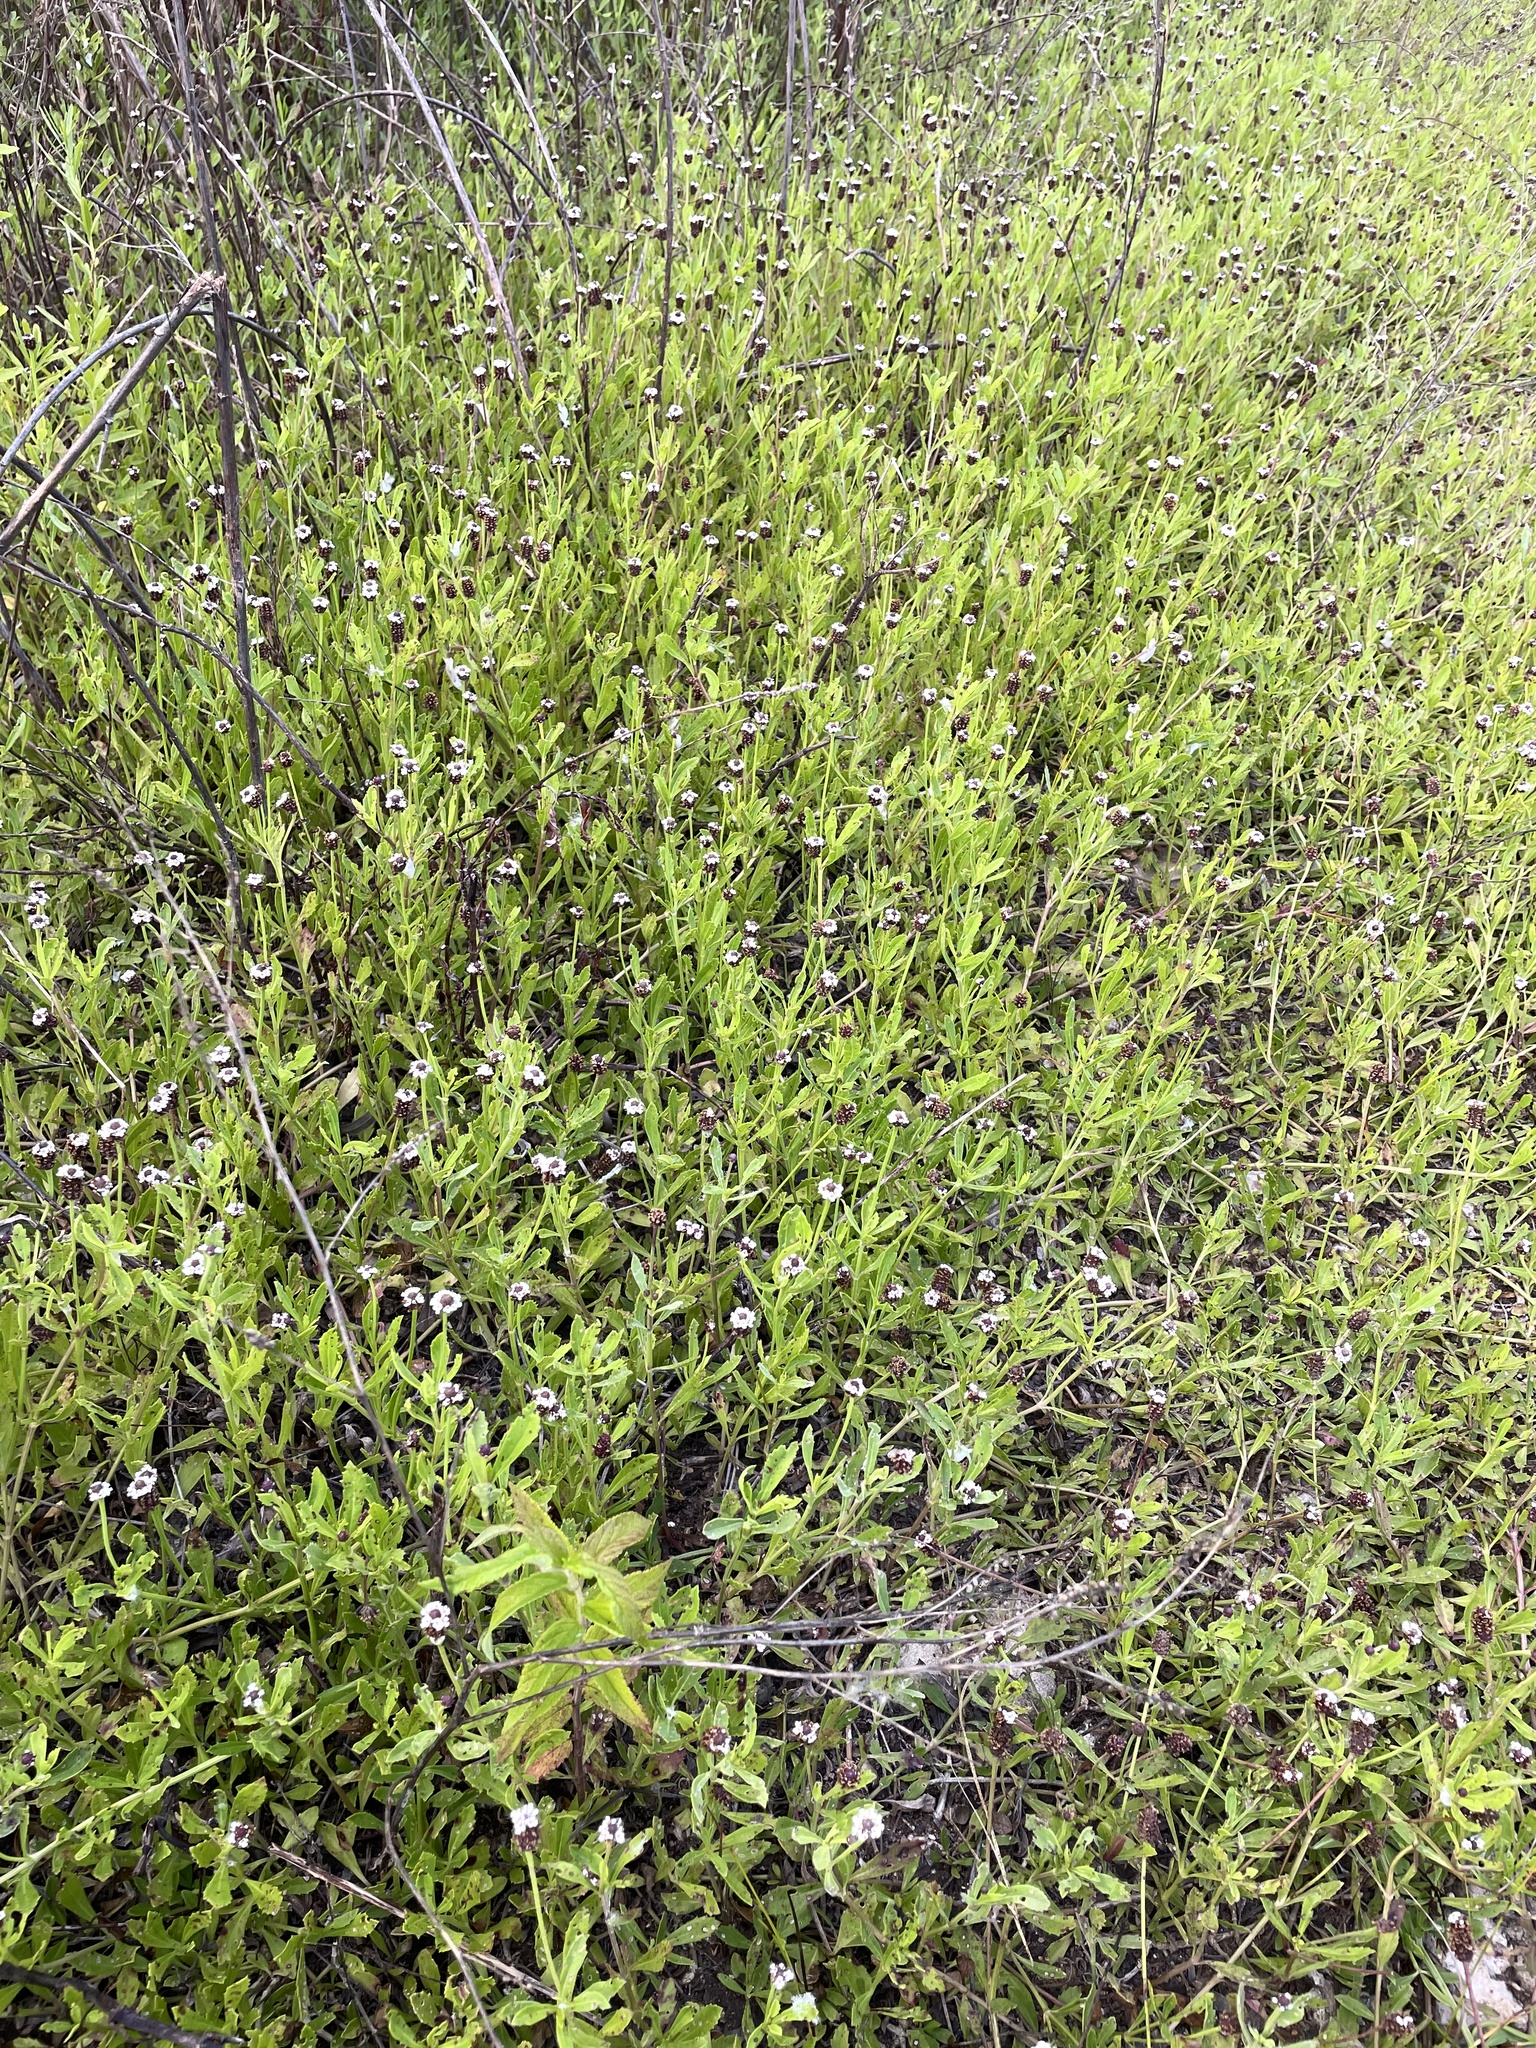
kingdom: Plantae
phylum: Tracheophyta
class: Magnoliopsida
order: Lamiales
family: Verbenaceae
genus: Phyla
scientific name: Phyla nodiflora
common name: Frogfruit
